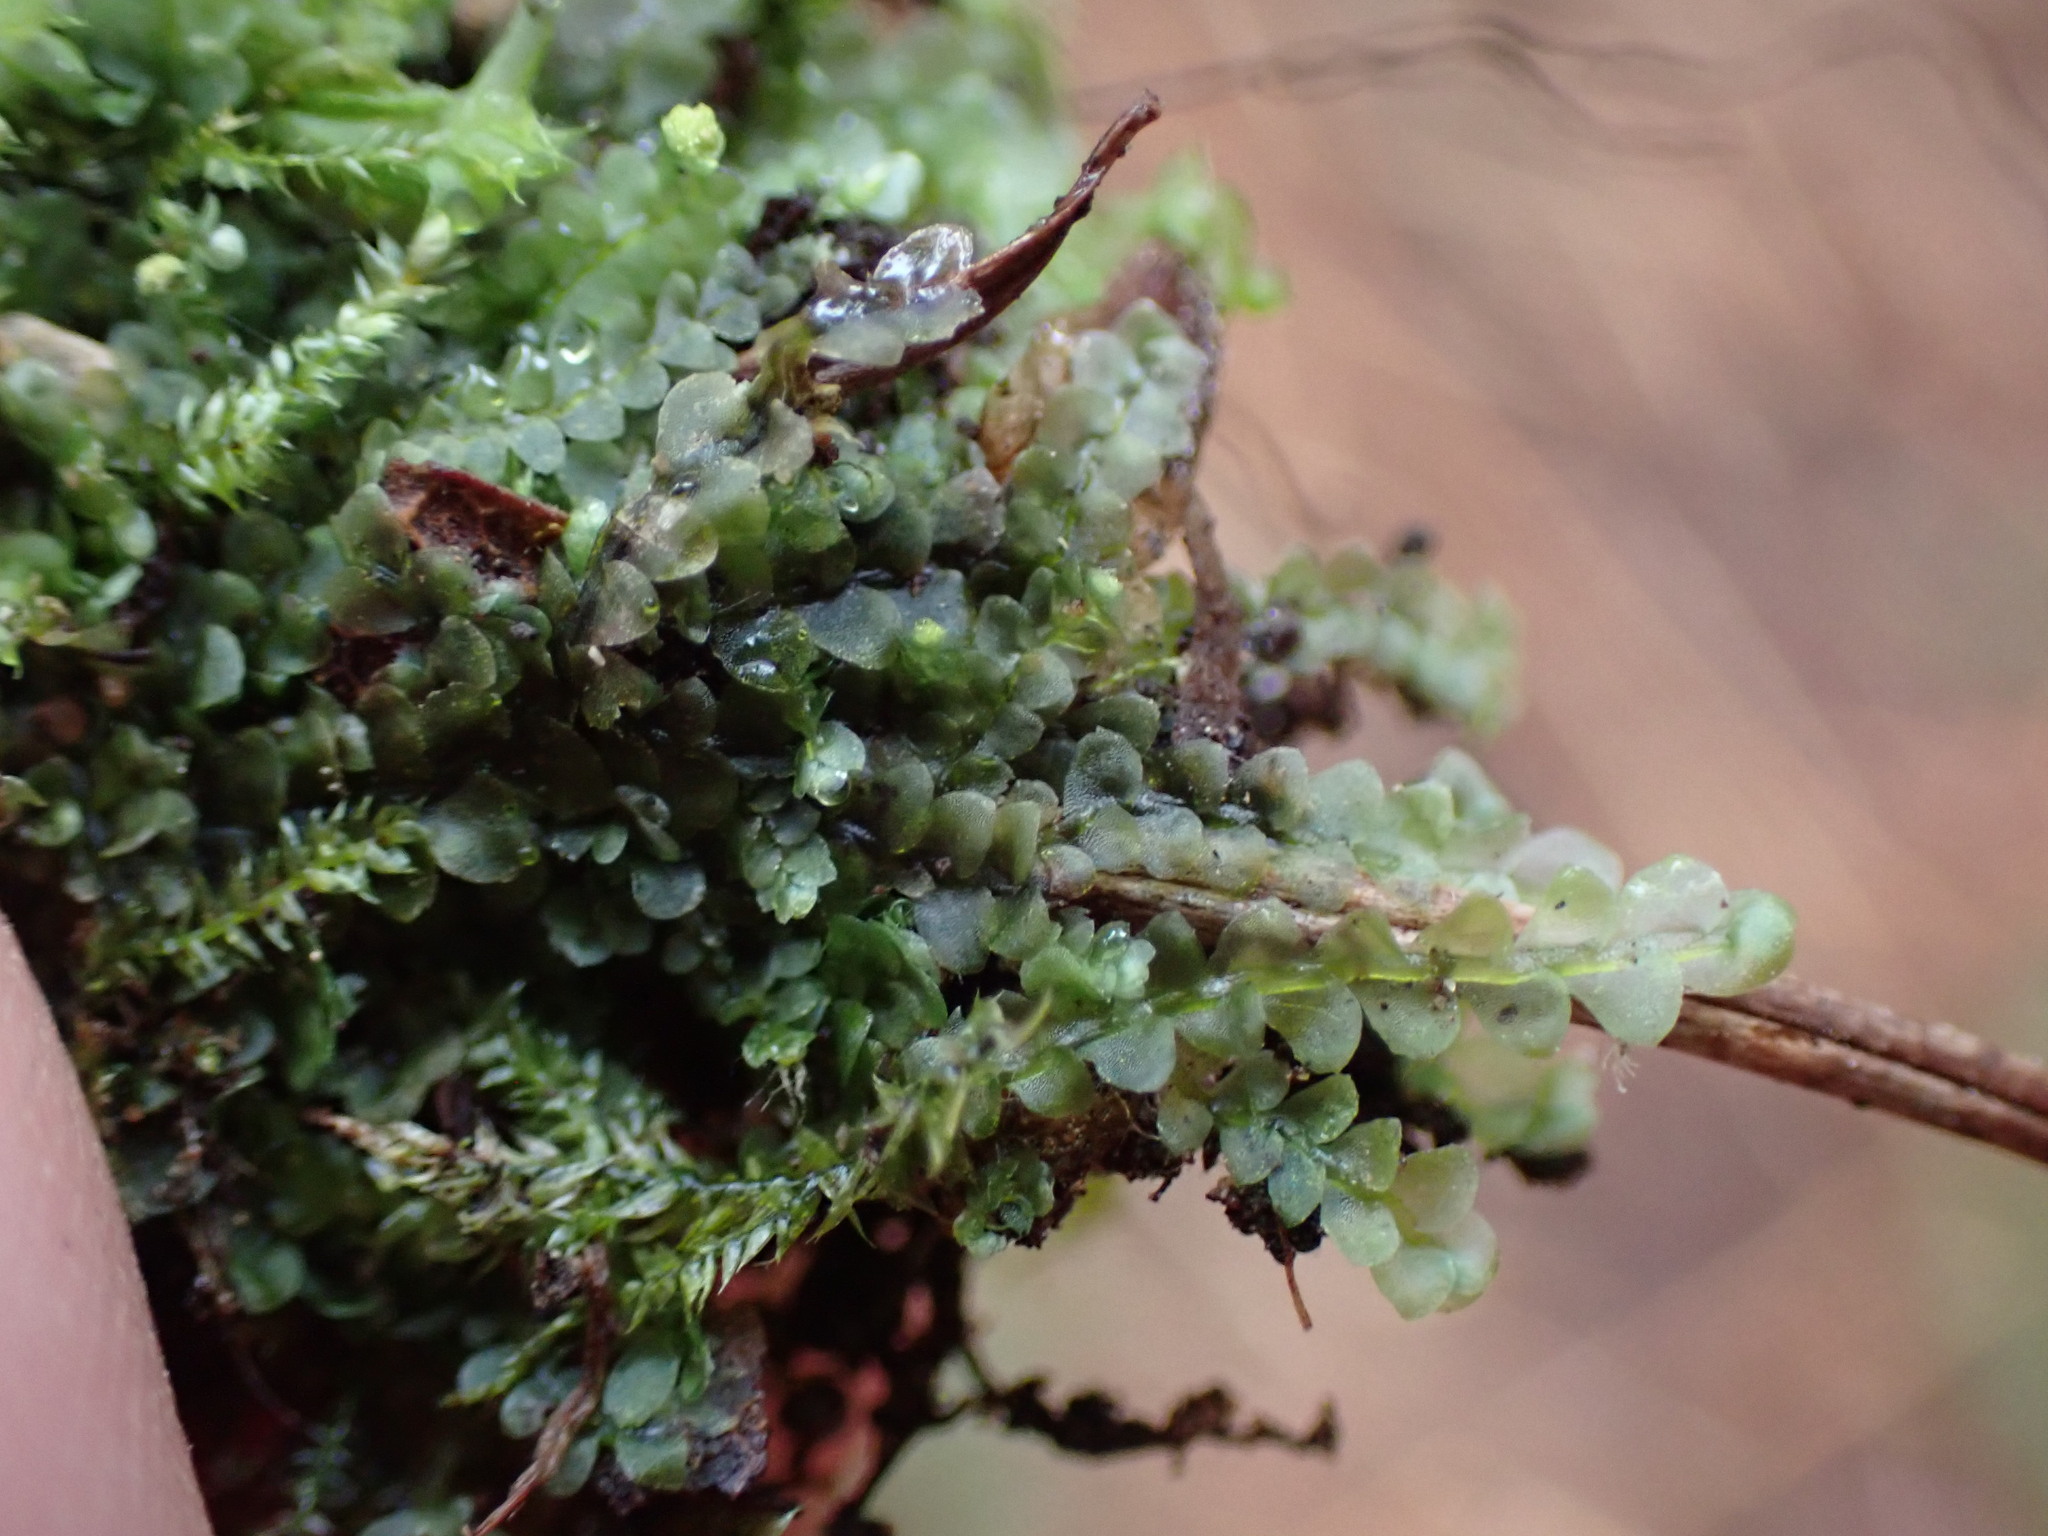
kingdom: Plantae
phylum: Marchantiophyta
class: Jungermanniopsida
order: Jungermanniales
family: Calypogeiaceae
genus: Calypogeia
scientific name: Calypogeia azurea
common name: Blue pouchwort
